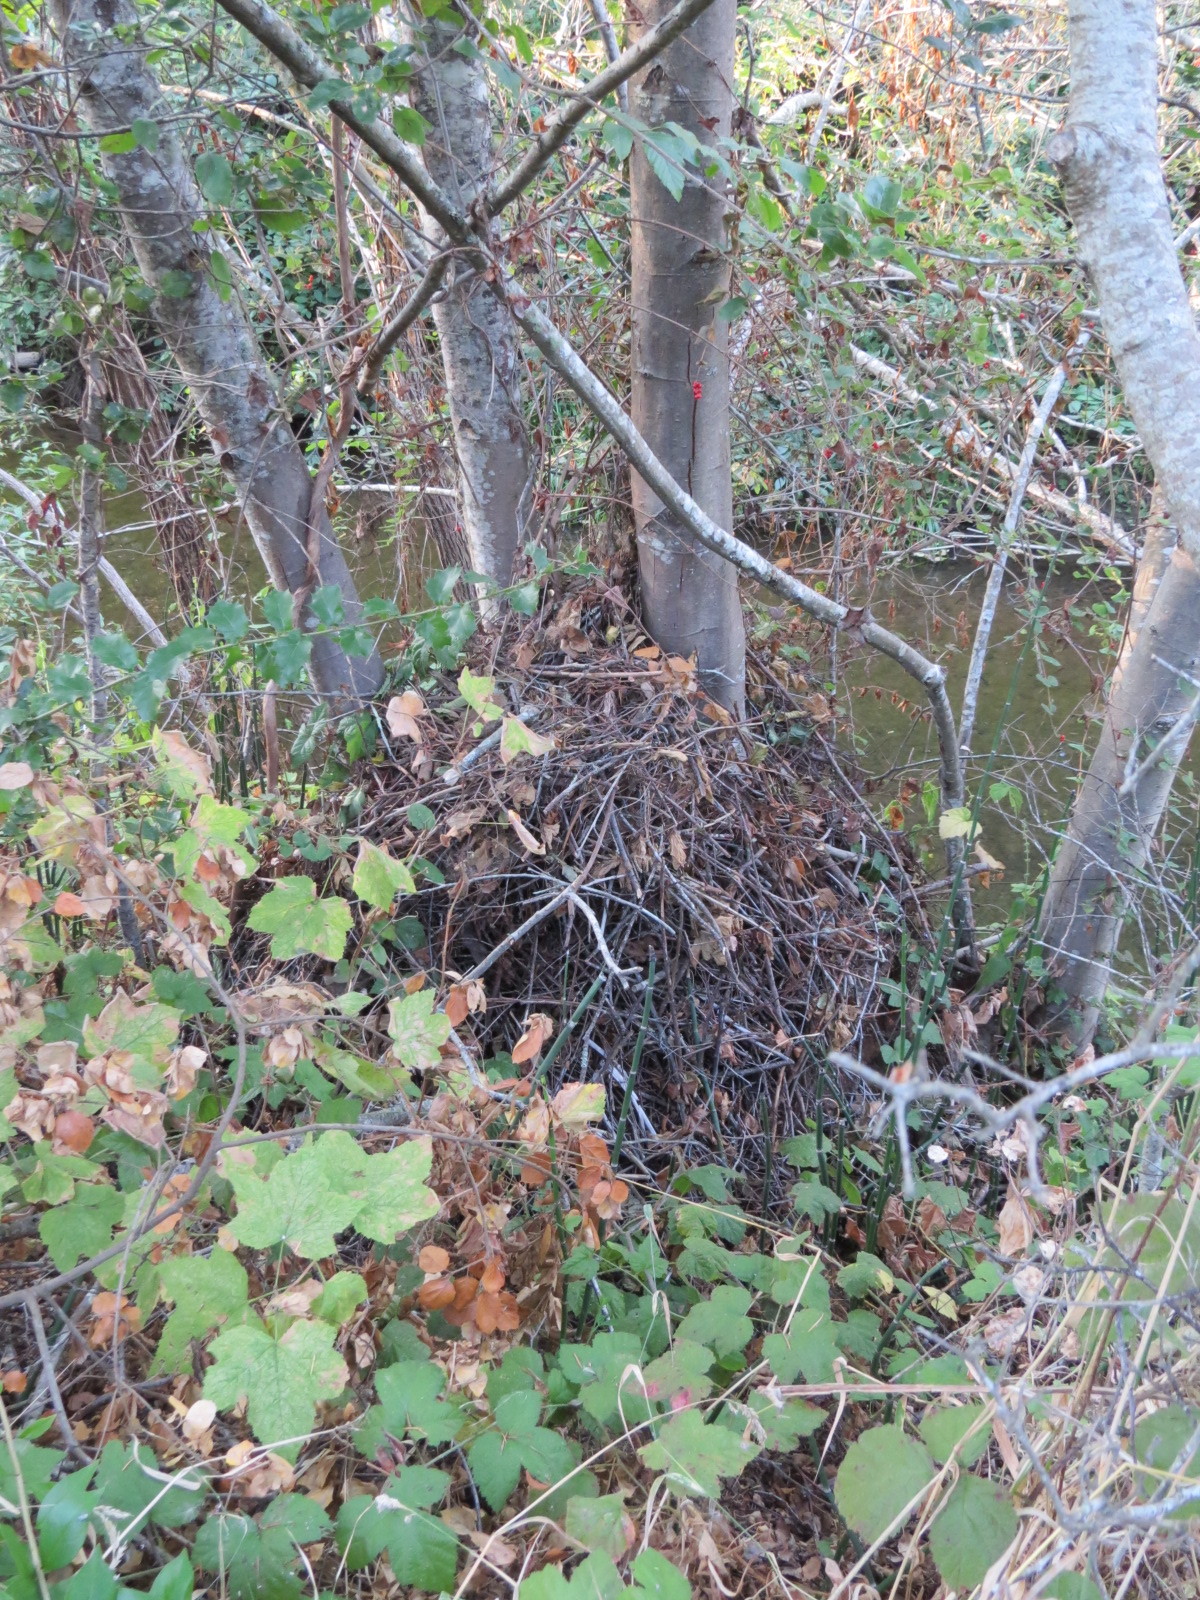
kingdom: Animalia
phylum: Chordata
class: Mammalia
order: Rodentia
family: Cricetidae
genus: Neotoma
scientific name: Neotoma fuscipes
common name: Dusky-footed woodrat
